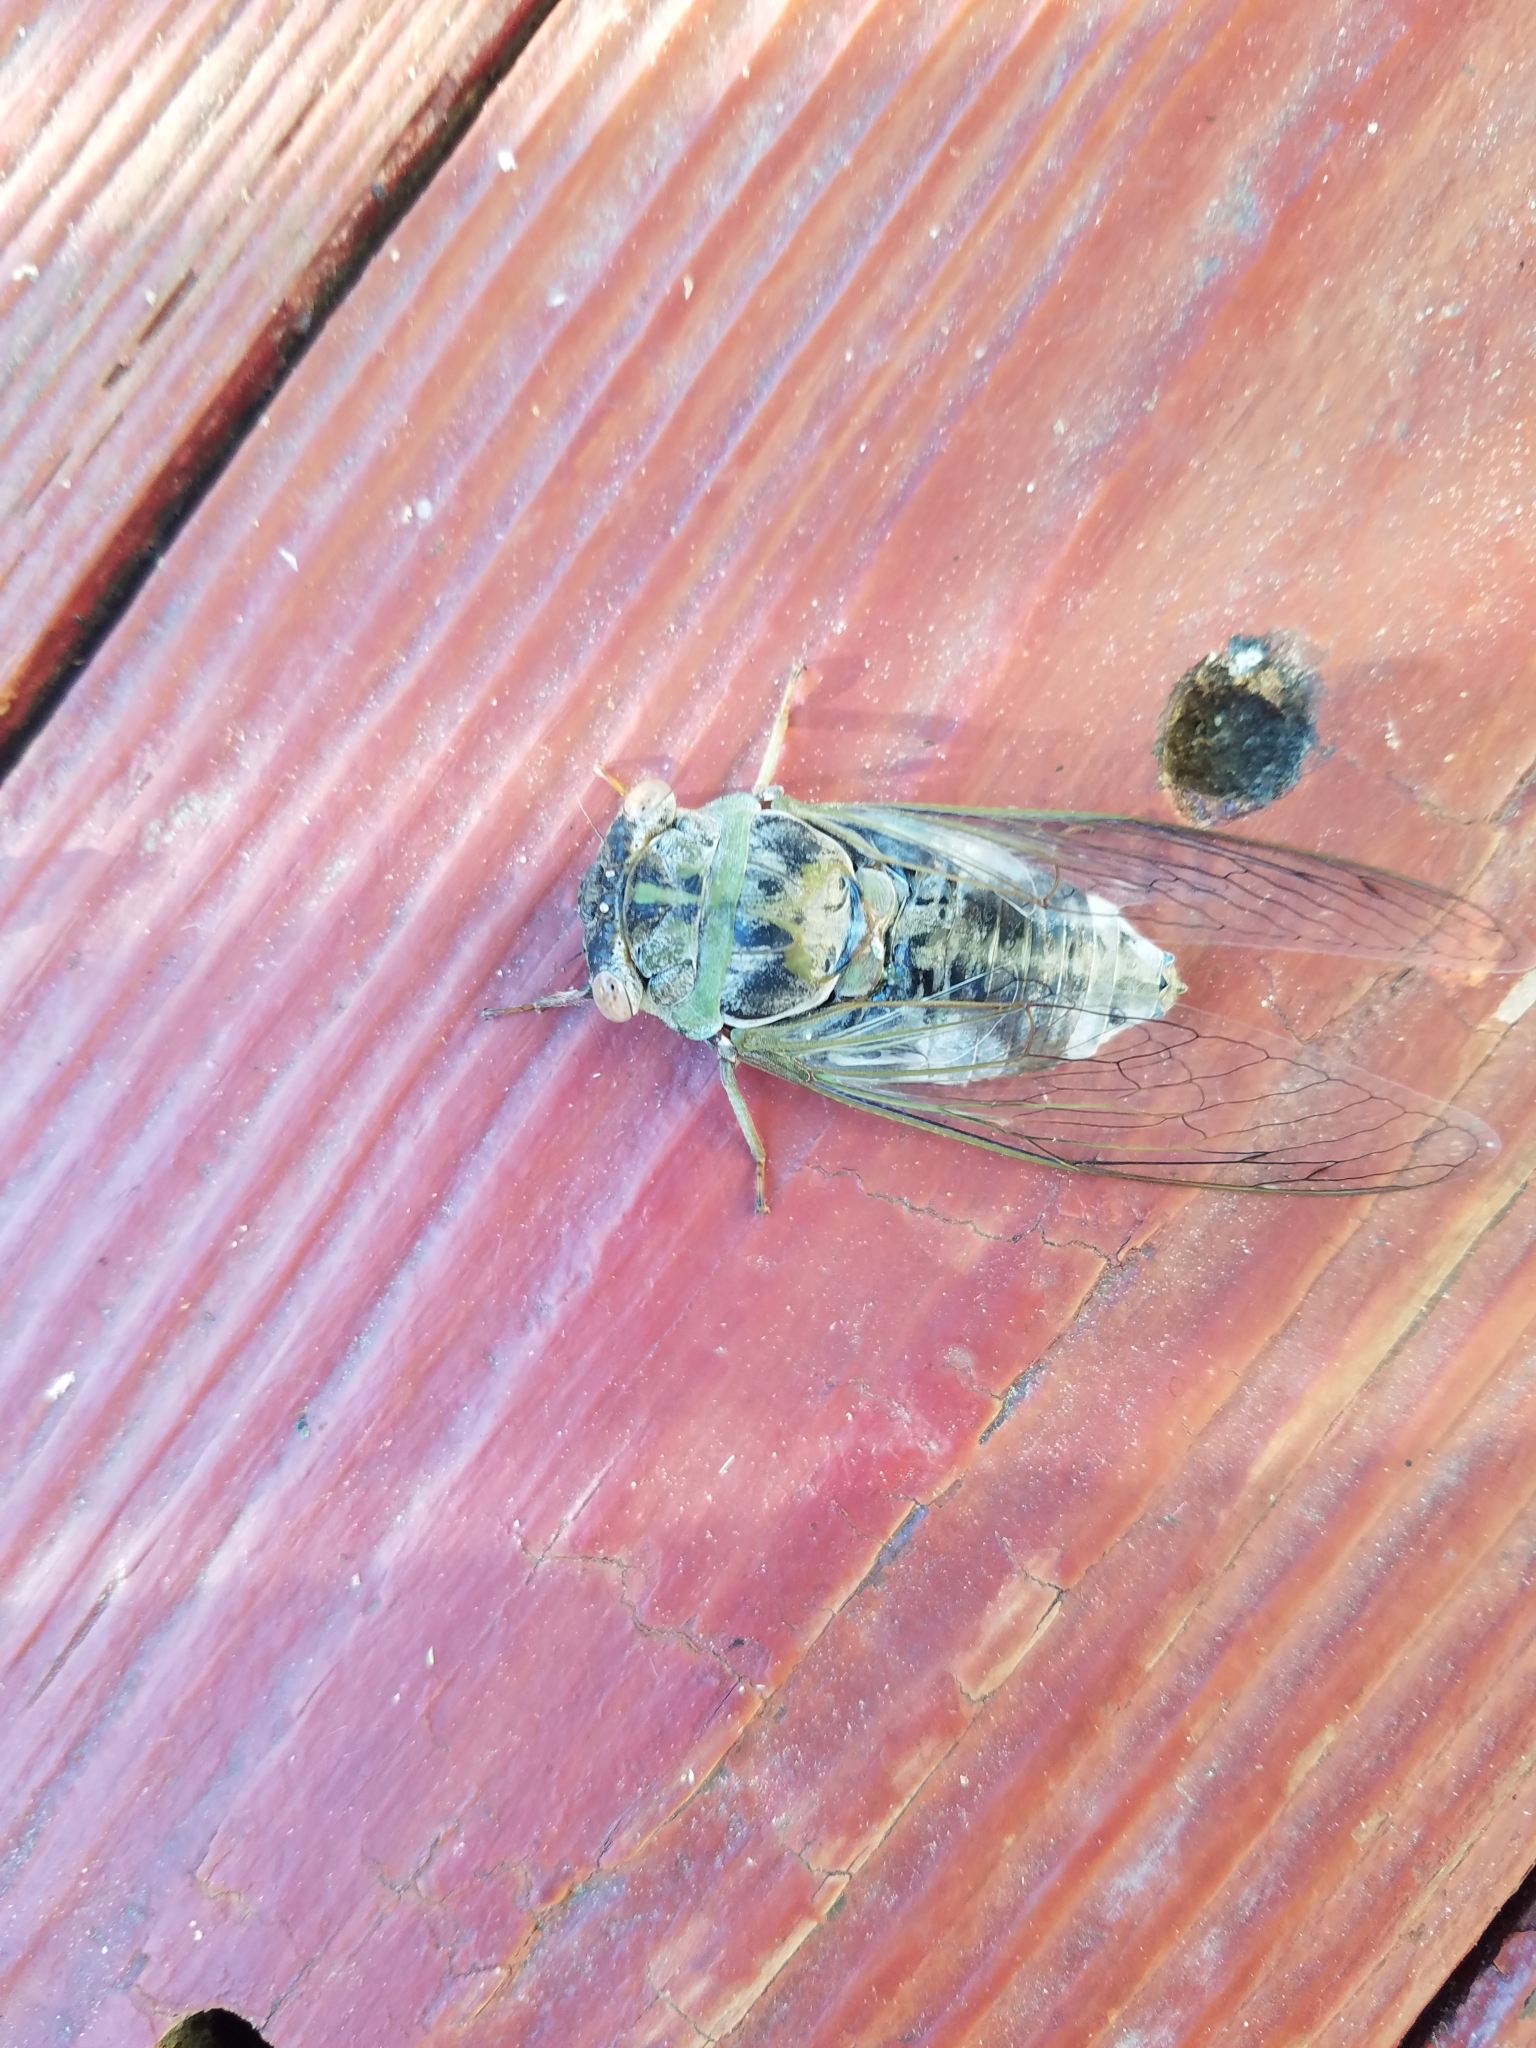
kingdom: Animalia
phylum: Arthropoda
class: Insecta
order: Hemiptera
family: Cicadidae
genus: Diceroprocta
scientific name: Diceroprocta grossa
